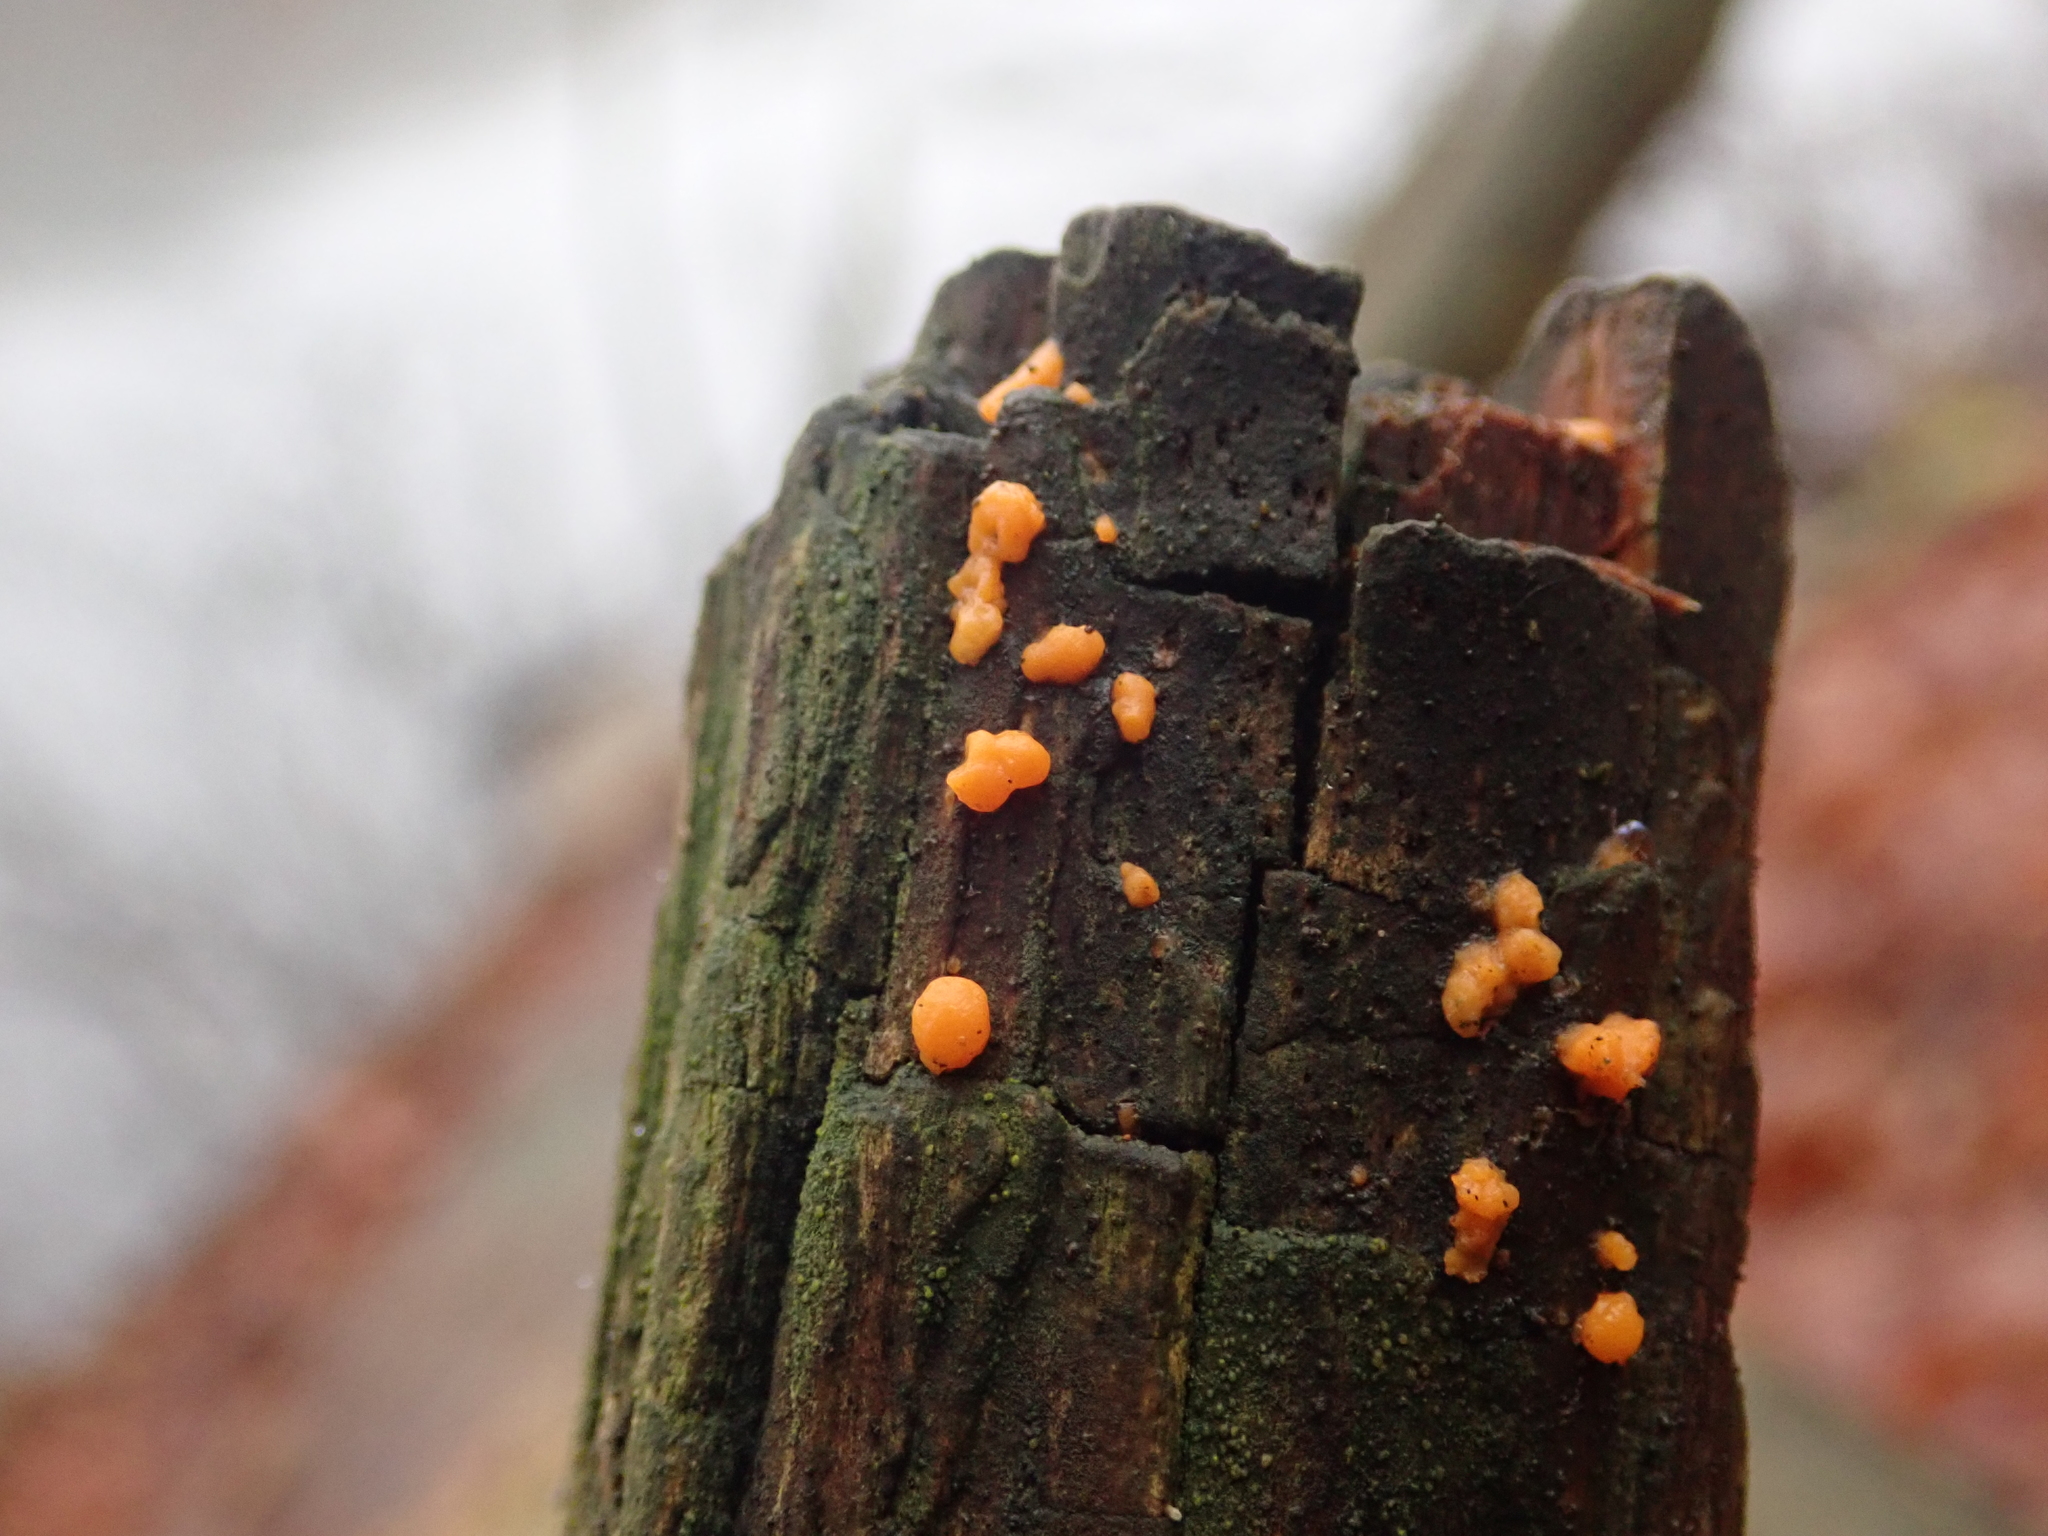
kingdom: Fungi
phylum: Basidiomycota
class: Dacrymycetes
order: Dacrymycetales
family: Dacrymycetaceae
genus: Dacrymyces
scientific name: Dacrymyces stillatus
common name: Common jelly spot
